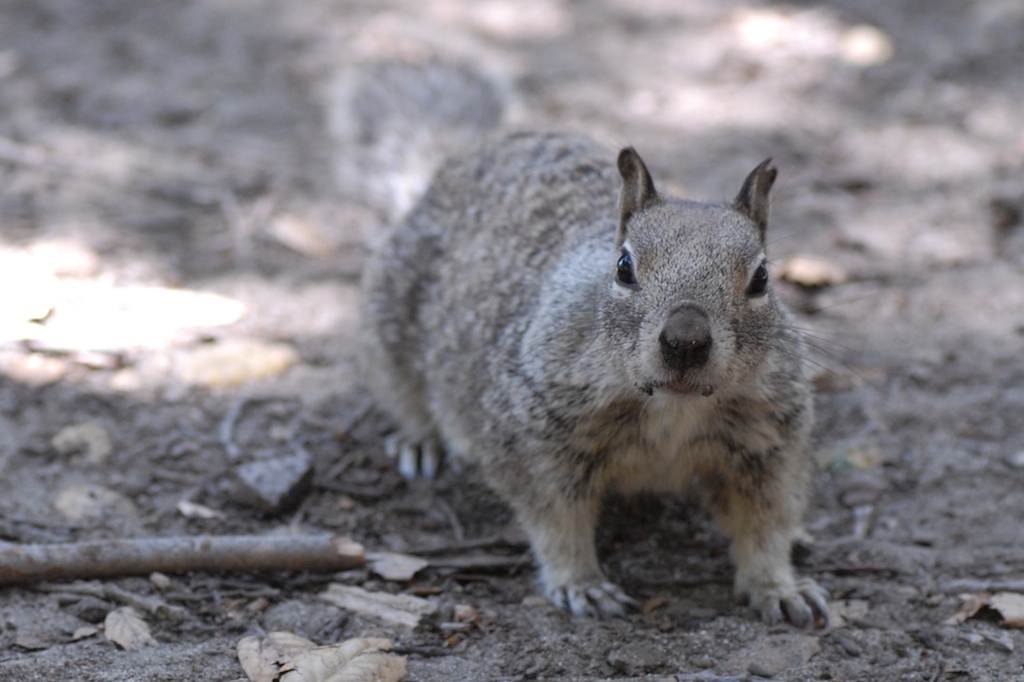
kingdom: Animalia
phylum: Chordata
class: Mammalia
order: Rodentia
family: Sciuridae
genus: Otospermophilus
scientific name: Otospermophilus beecheyi
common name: California ground squirrel
